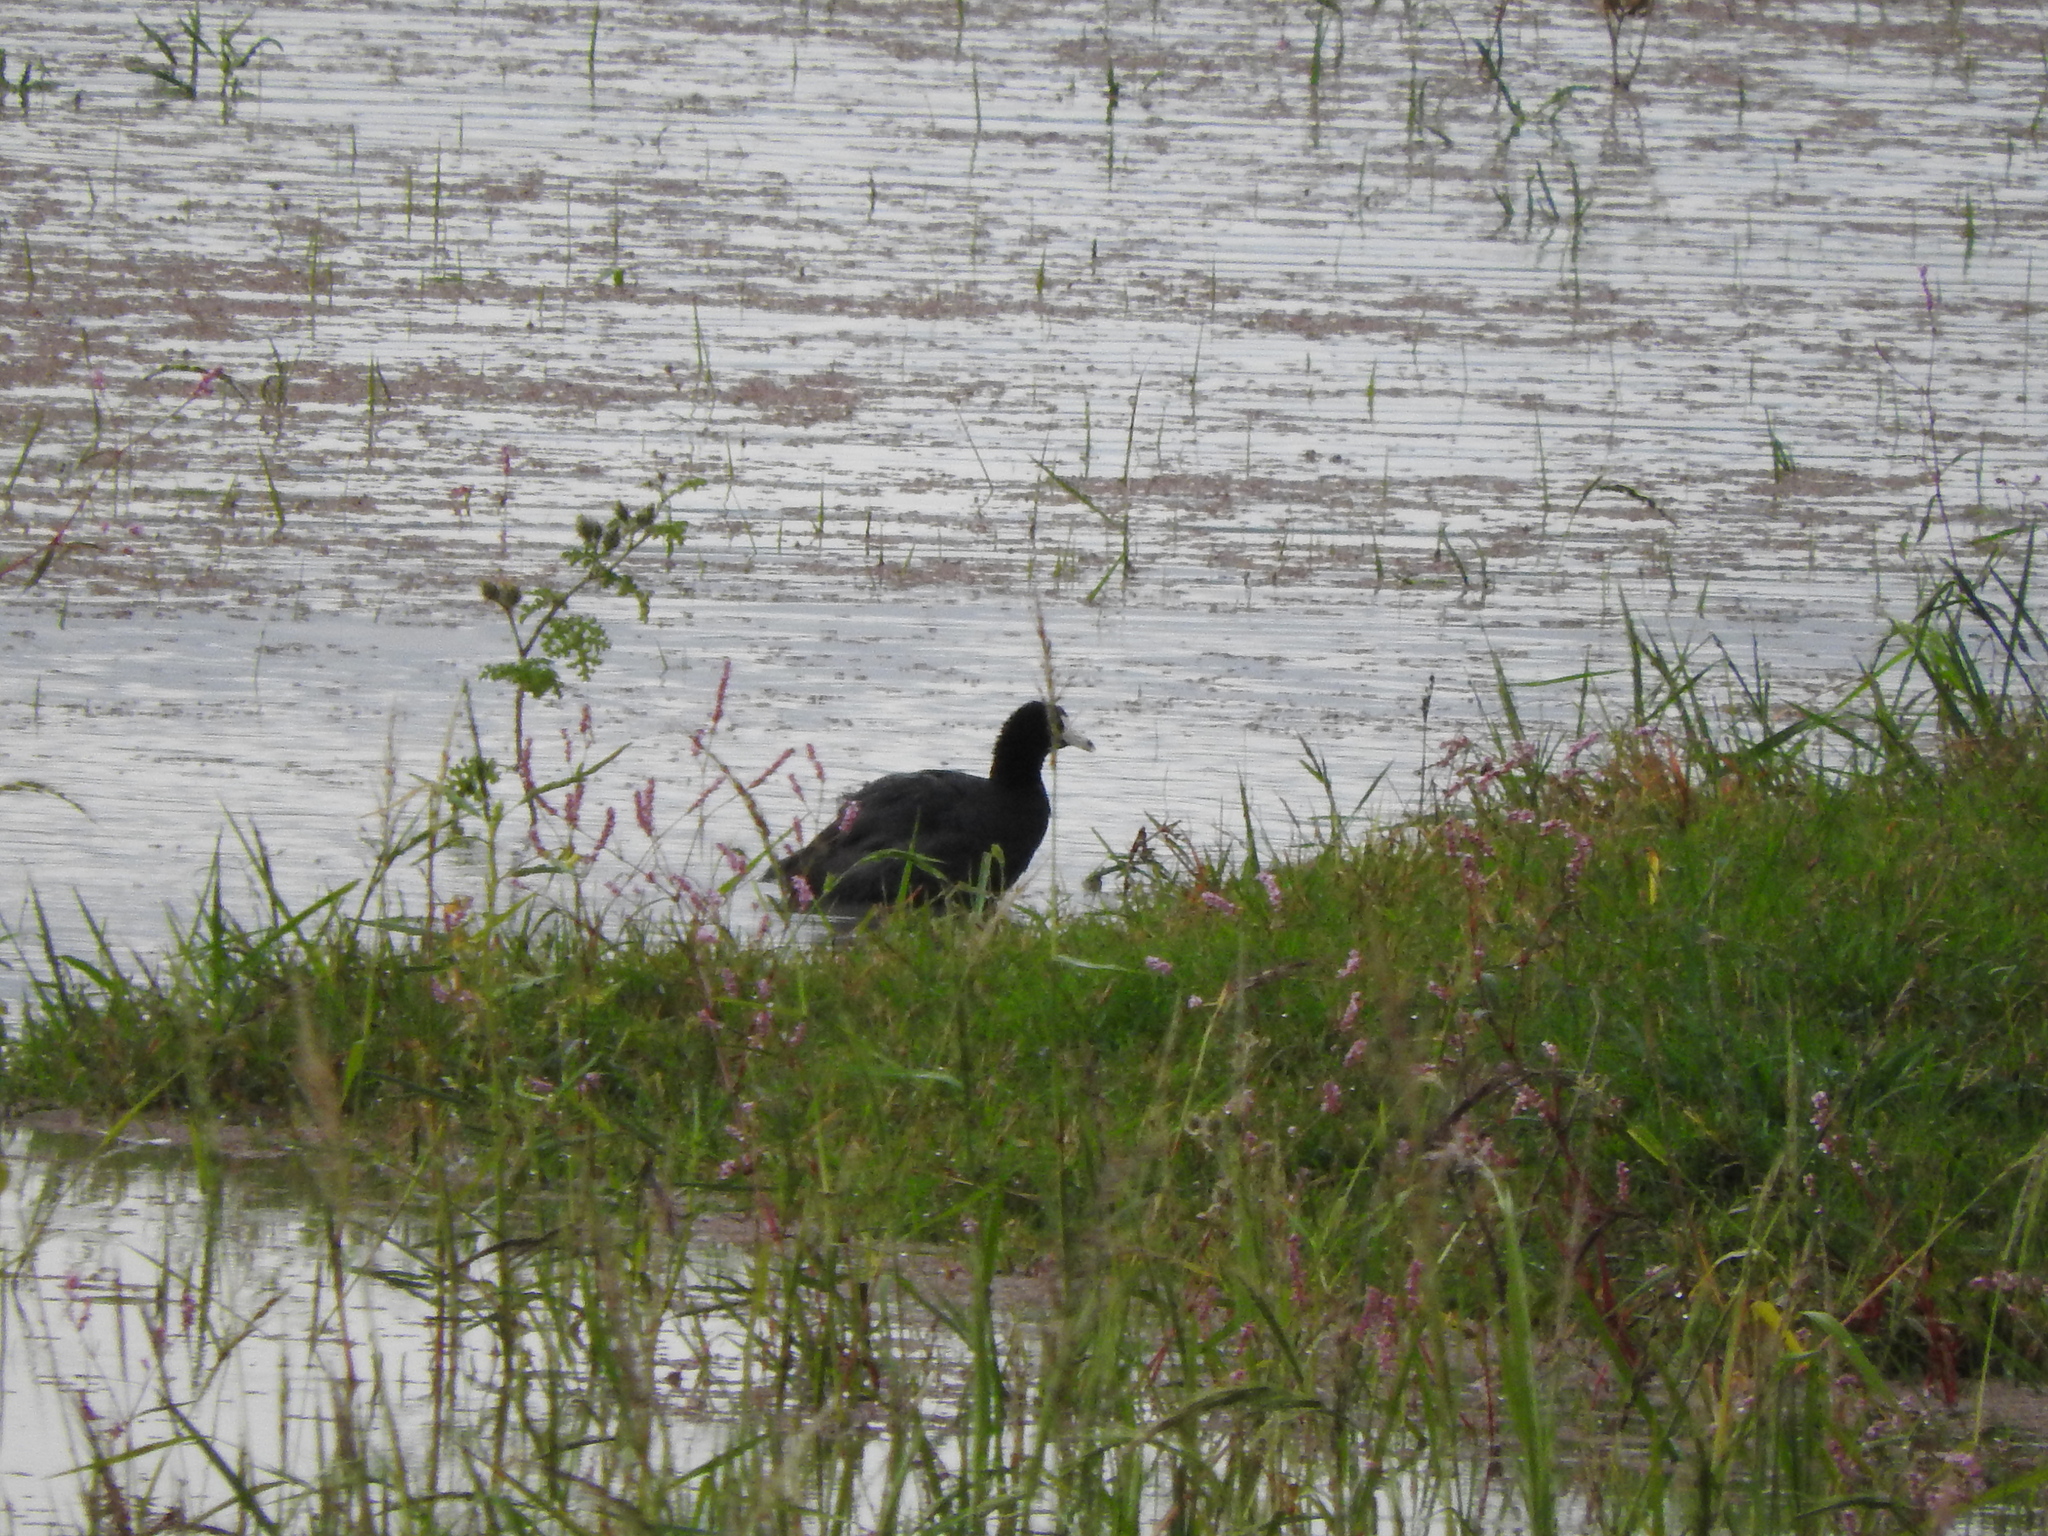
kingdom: Animalia
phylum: Chordata
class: Aves
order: Gruiformes
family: Rallidae
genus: Fulica
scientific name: Fulica americana
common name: American coot
